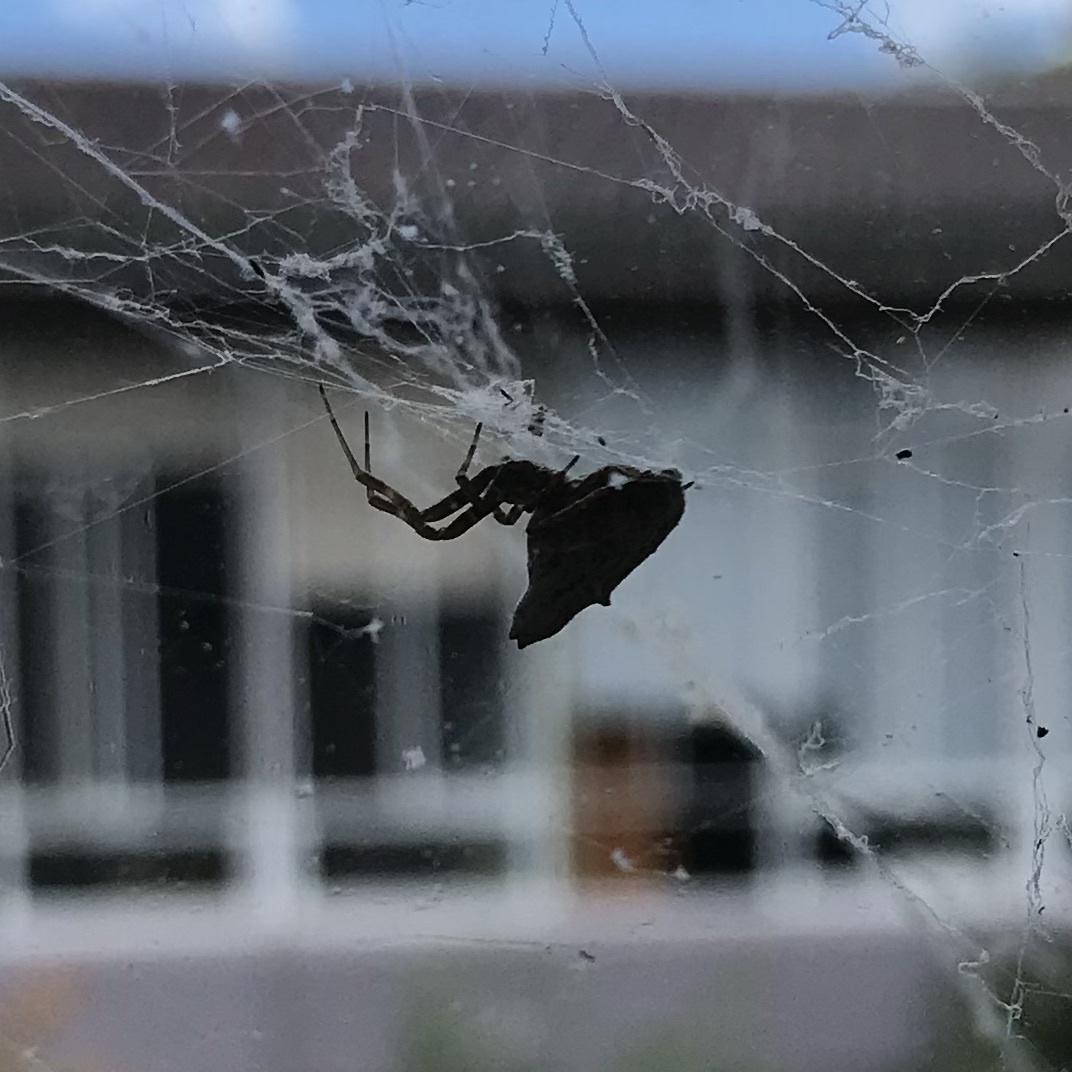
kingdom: Animalia
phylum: Arthropoda
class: Arachnida
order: Araneae
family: Uloboridae
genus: Philoponella
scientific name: Philoponella congregabilis
